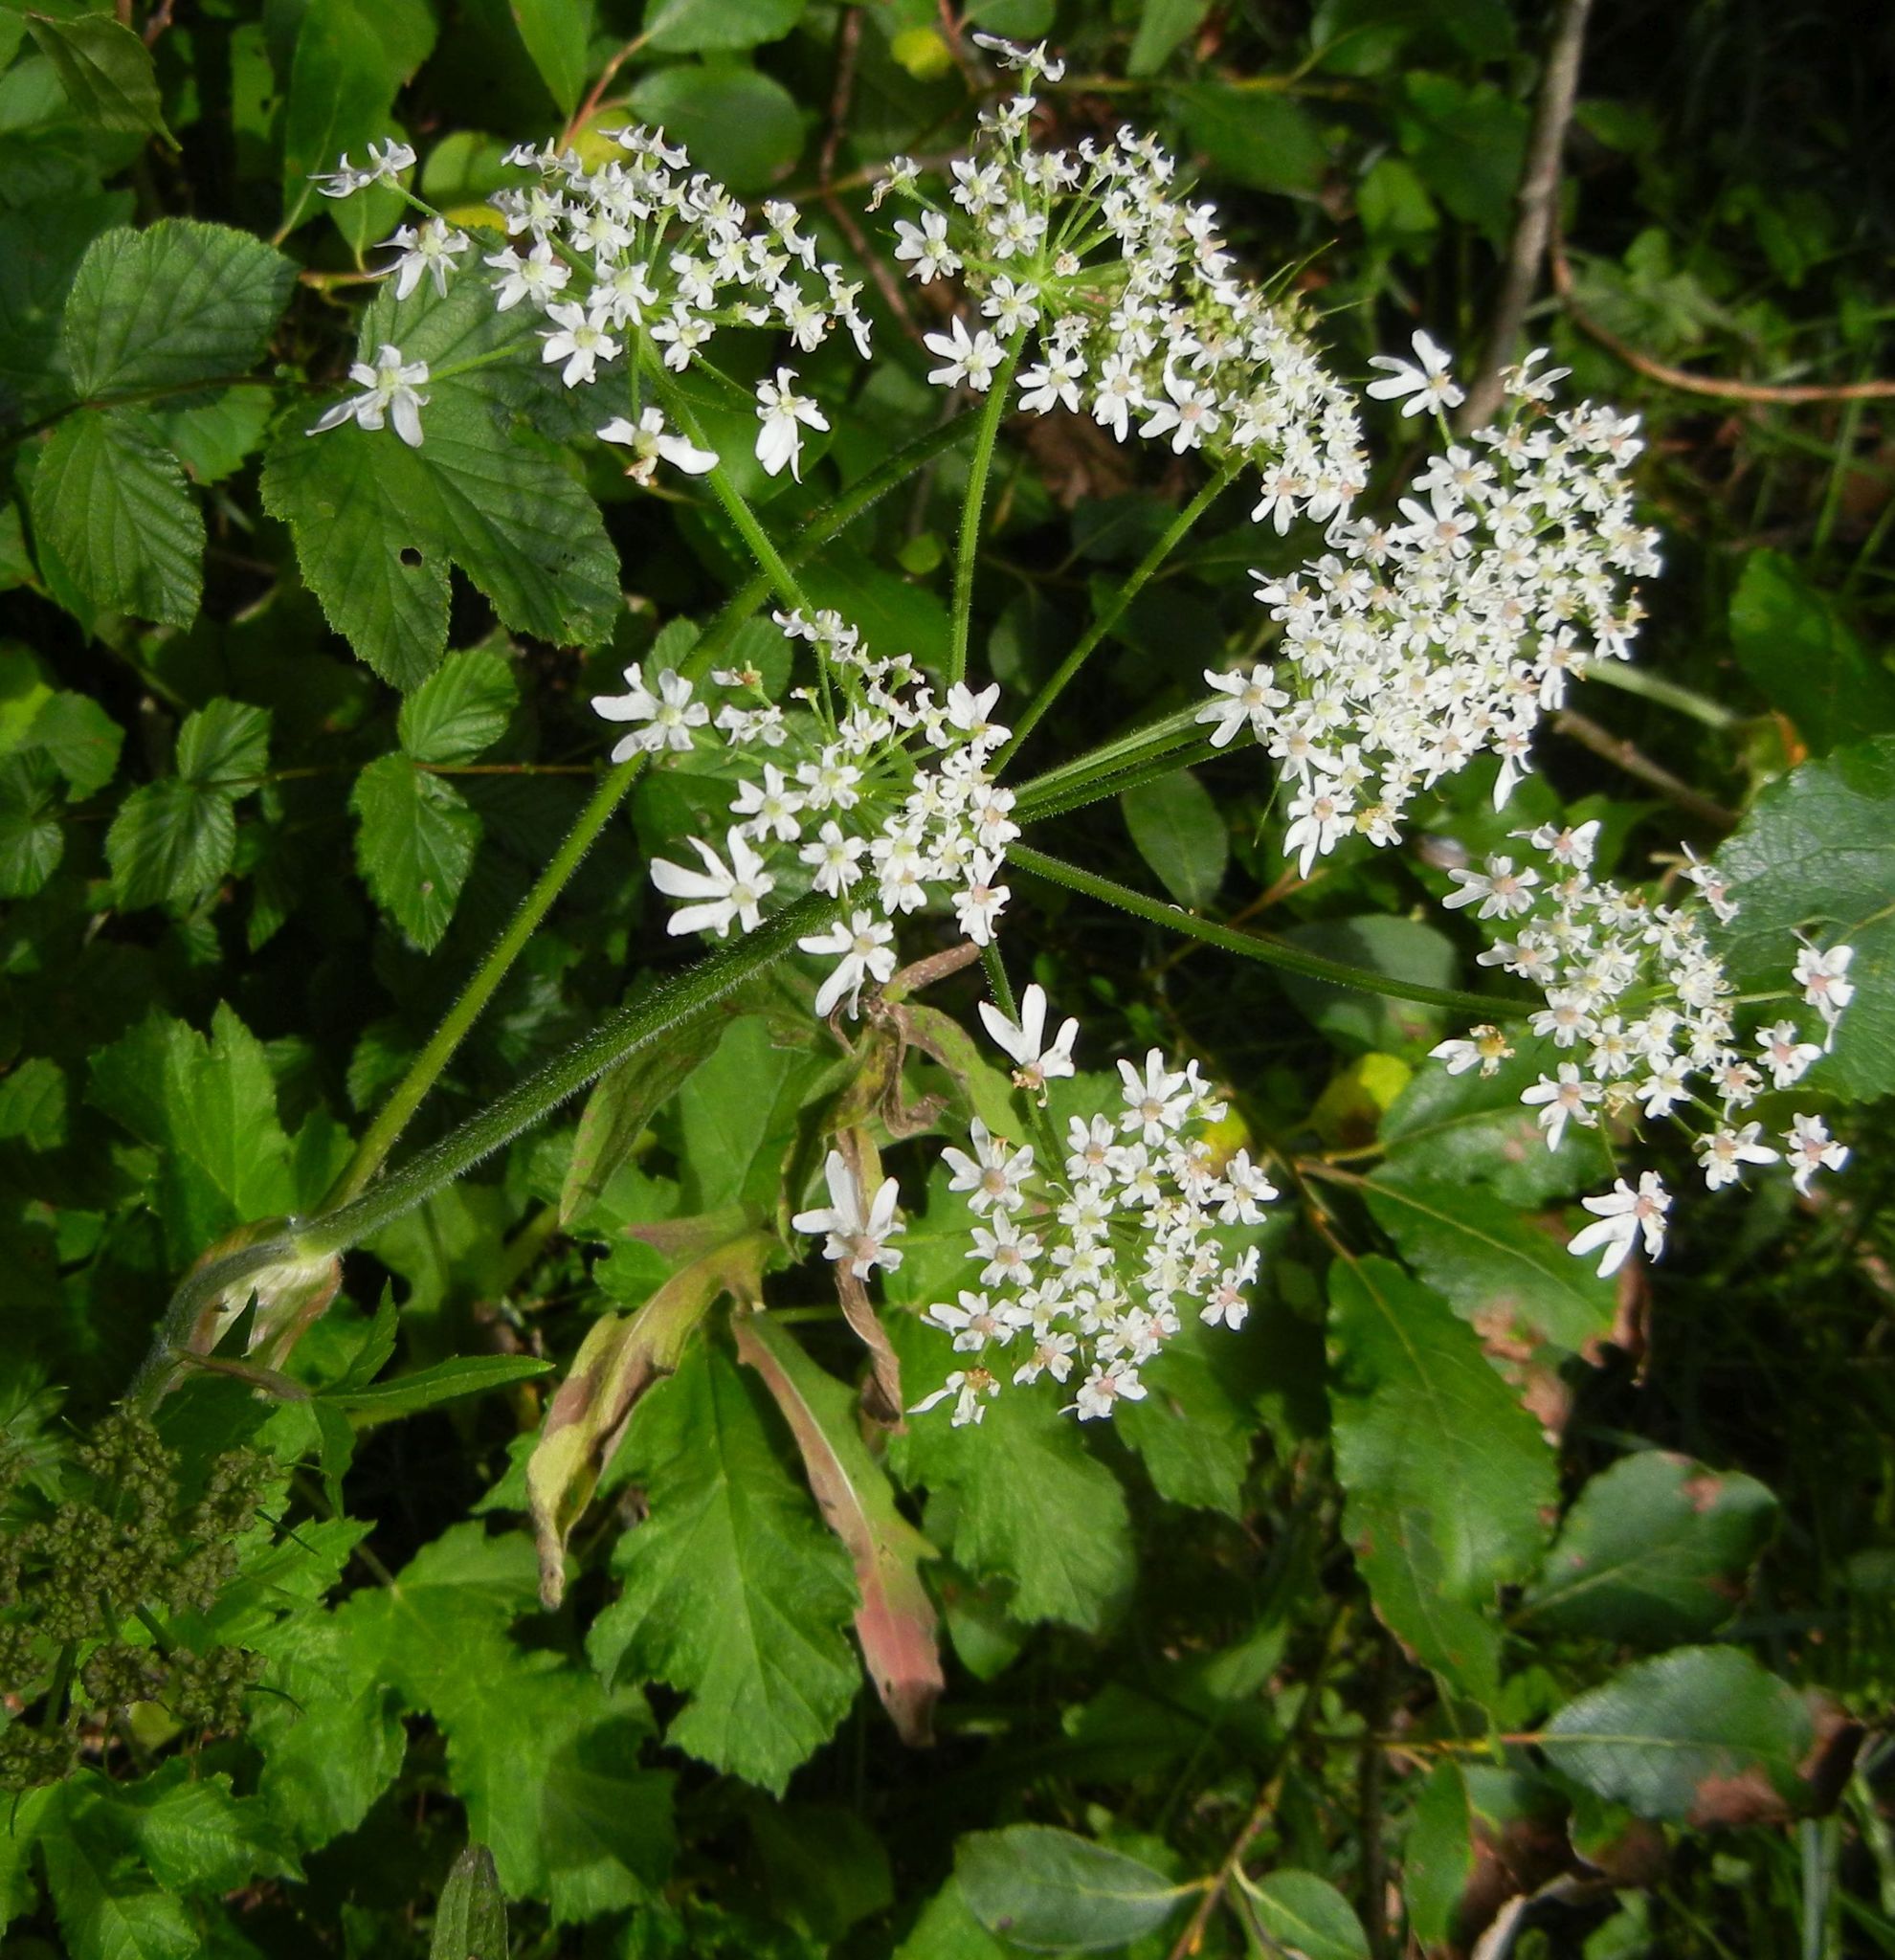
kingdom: Plantae
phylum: Tracheophyta
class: Magnoliopsida
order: Apiales
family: Apiaceae
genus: Heracleum
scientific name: Heracleum sphondylium
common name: Hogweed
